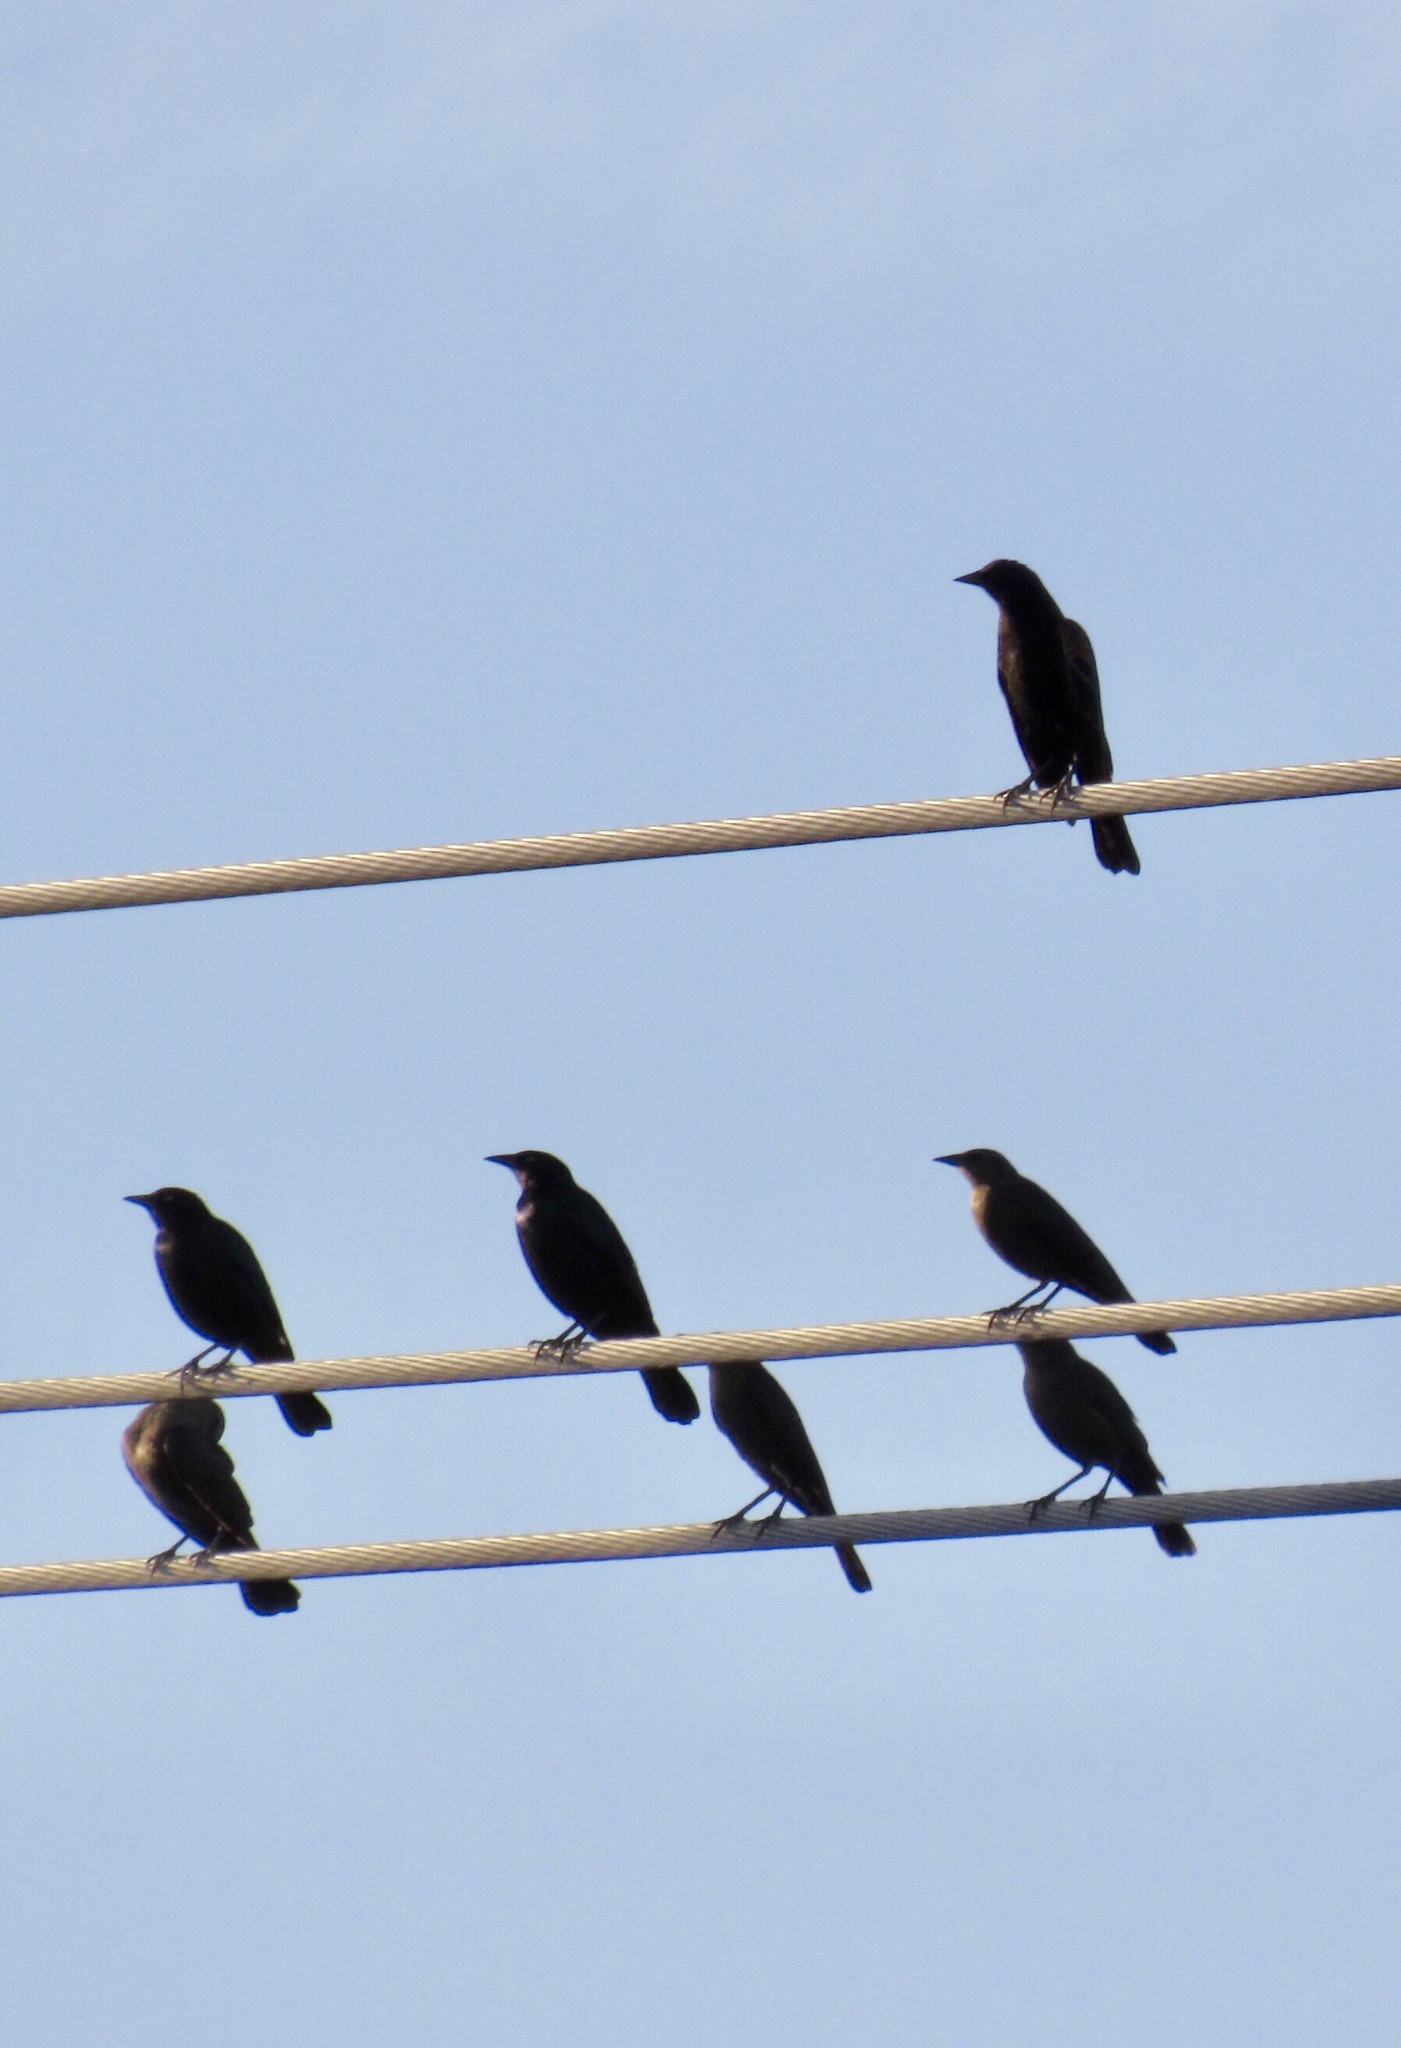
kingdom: Animalia
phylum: Chordata
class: Aves
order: Passeriformes
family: Icteridae
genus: Quiscalus
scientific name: Quiscalus mexicanus
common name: Great-tailed grackle
